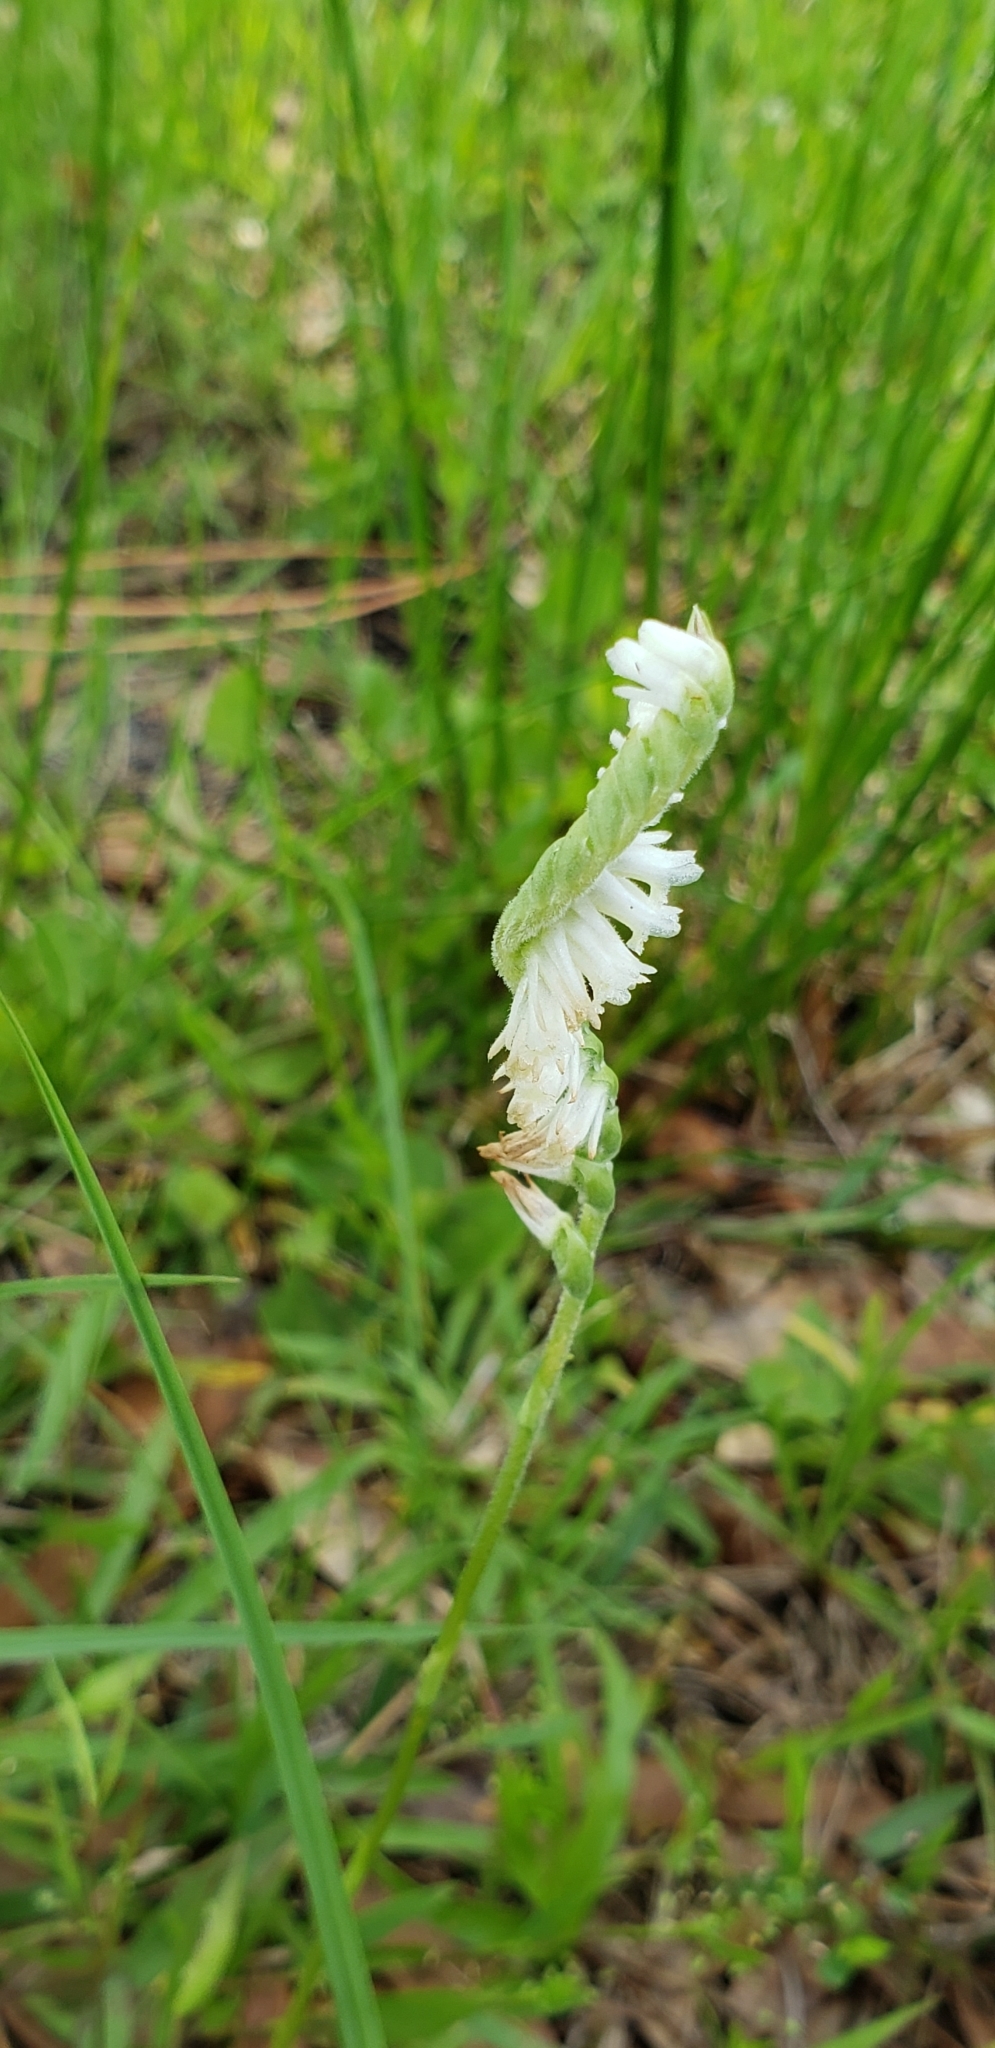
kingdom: Plantae
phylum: Tracheophyta
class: Liliopsida
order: Asparagales
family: Orchidaceae
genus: Spiranthes
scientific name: Spiranthes vernalis
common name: Spring ladies'-tresses
